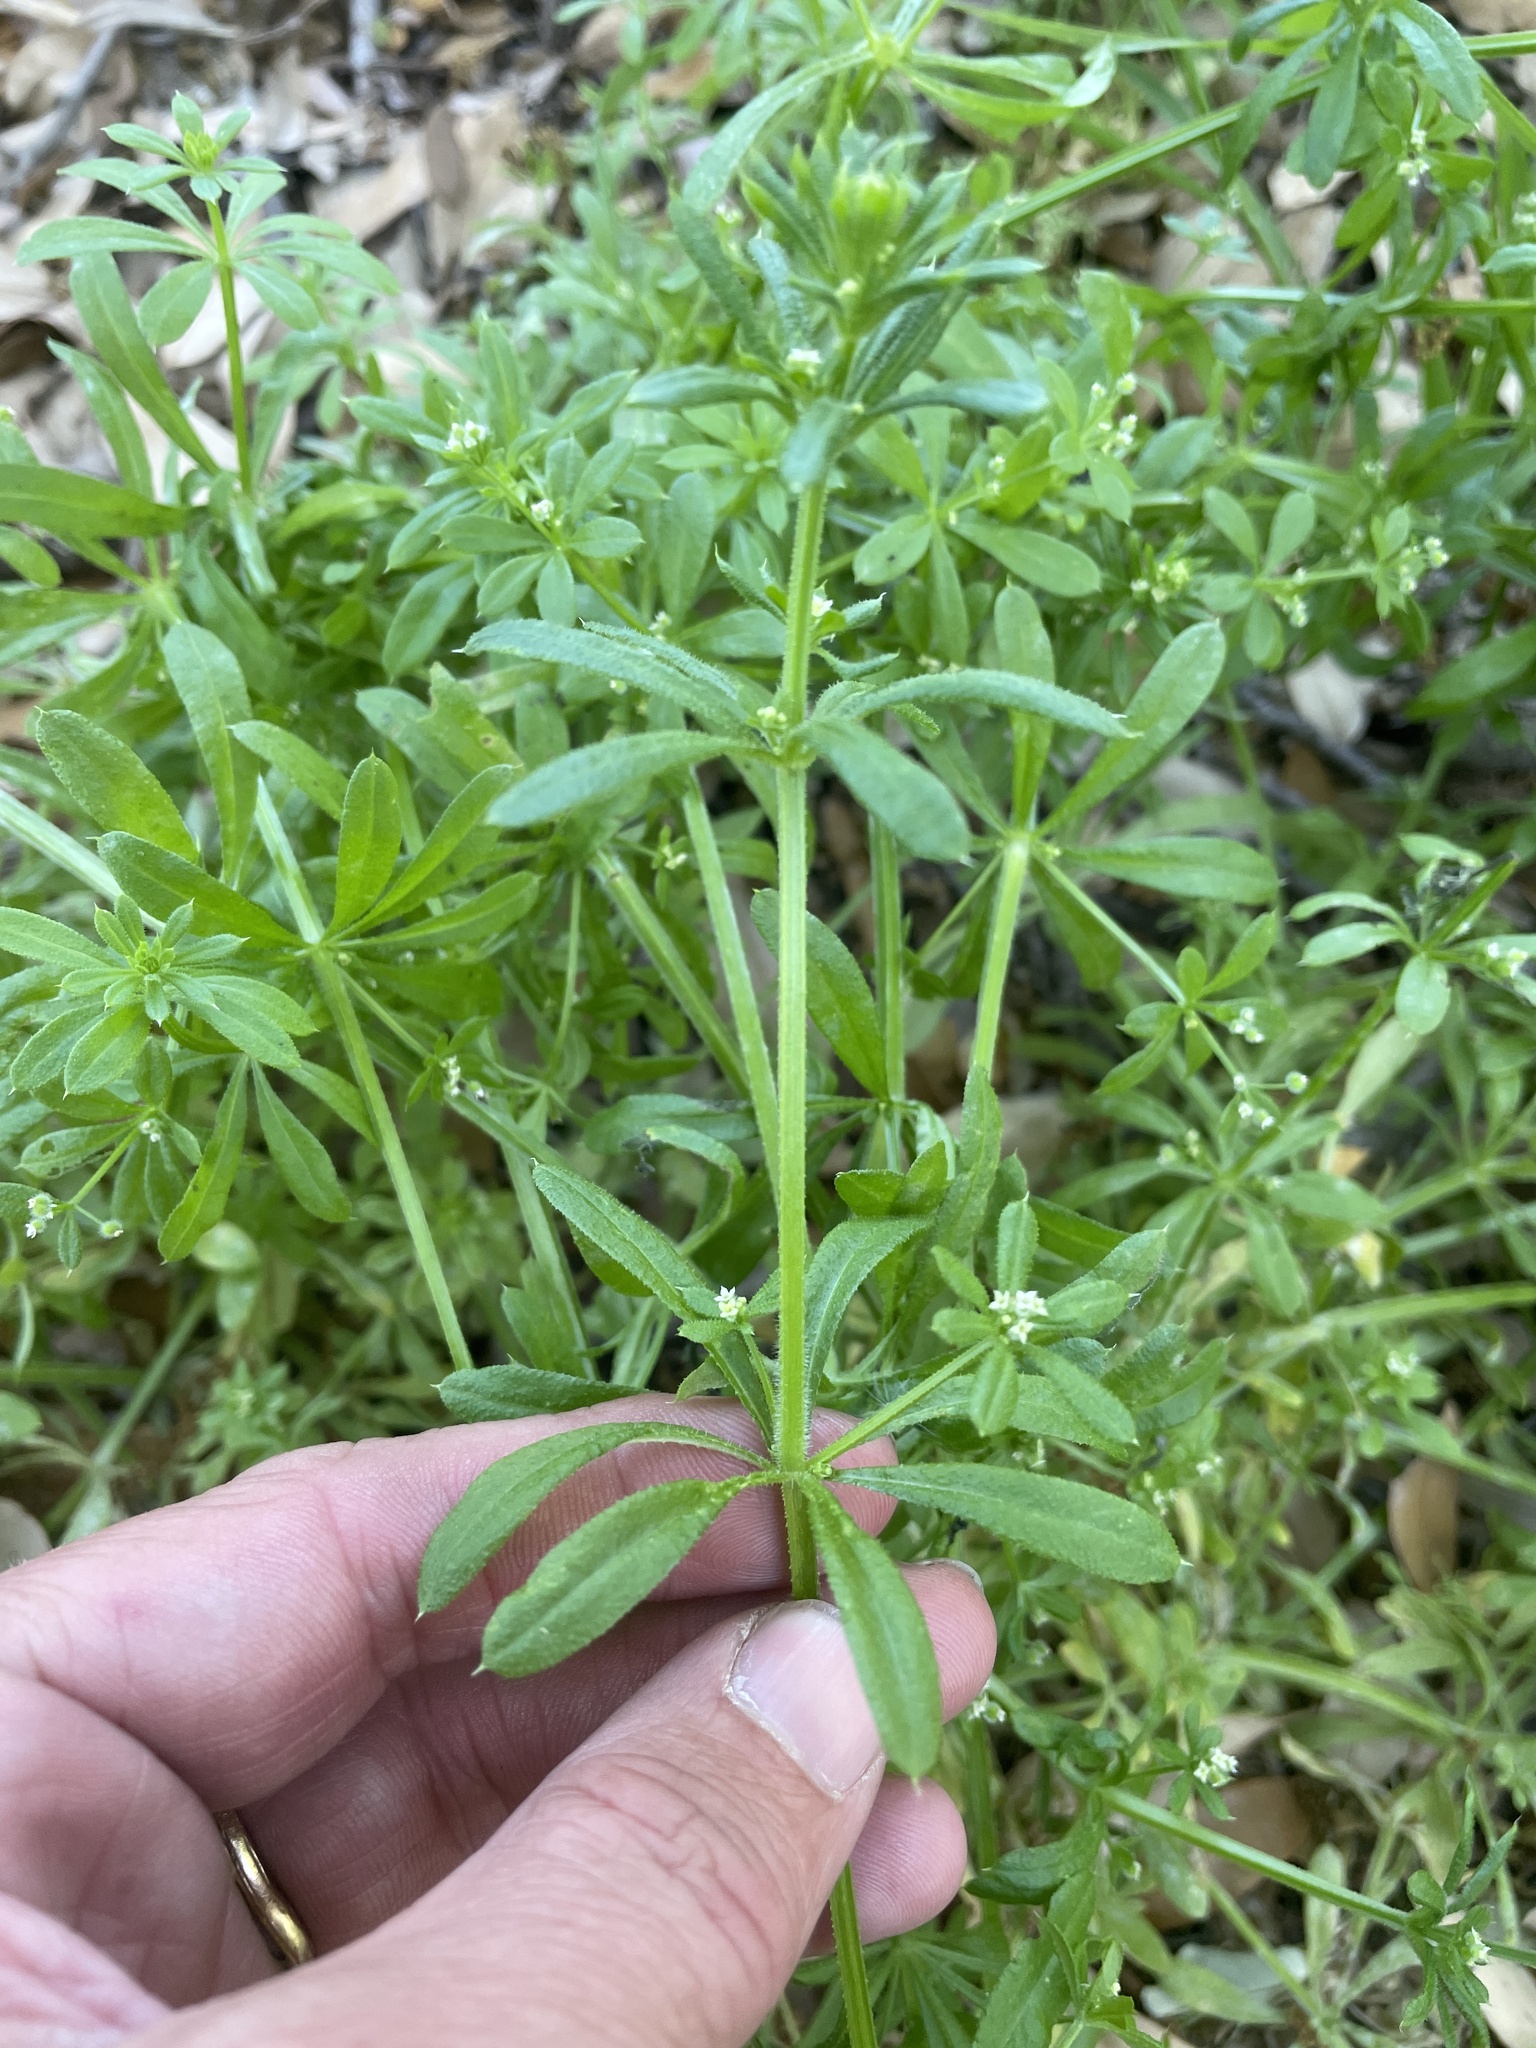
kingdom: Plantae
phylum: Tracheophyta
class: Magnoliopsida
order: Gentianales
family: Rubiaceae
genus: Galium
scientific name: Galium aparine
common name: Cleavers
